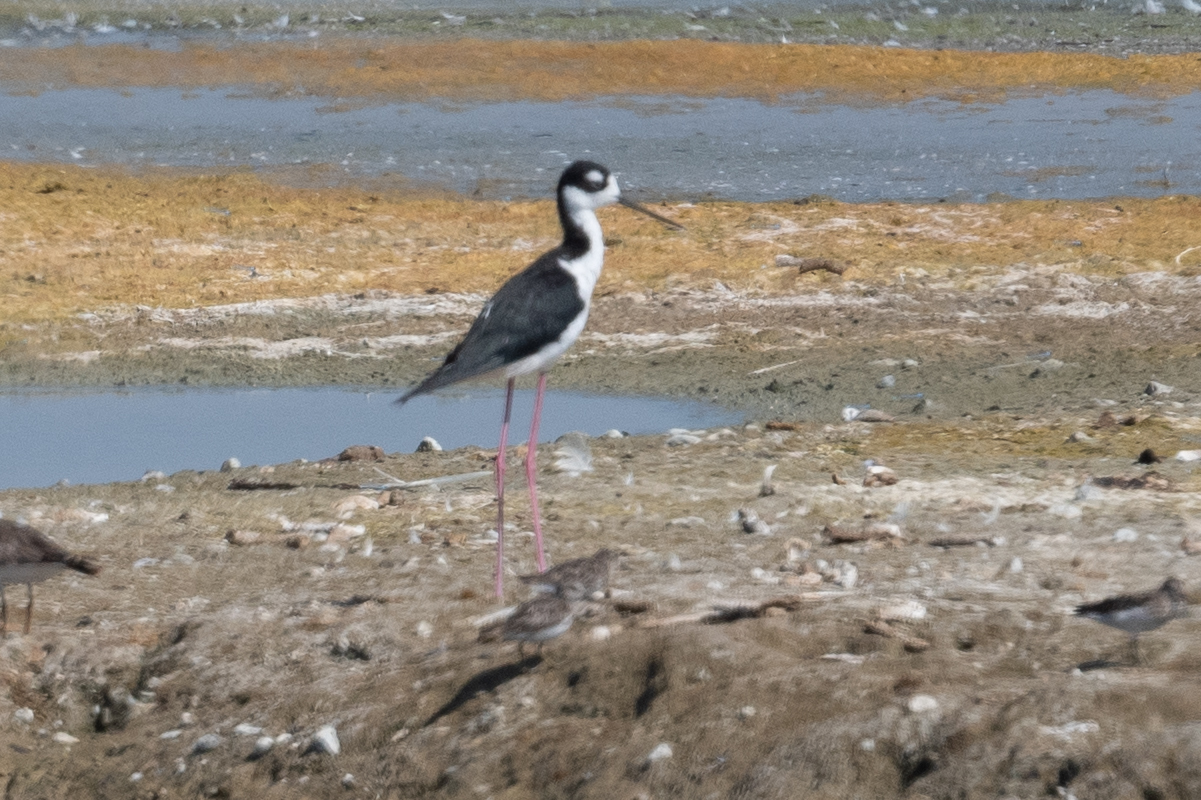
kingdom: Animalia
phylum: Chordata
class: Aves
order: Charadriiformes
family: Recurvirostridae
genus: Himantopus
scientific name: Himantopus mexicanus
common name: Black-necked stilt
